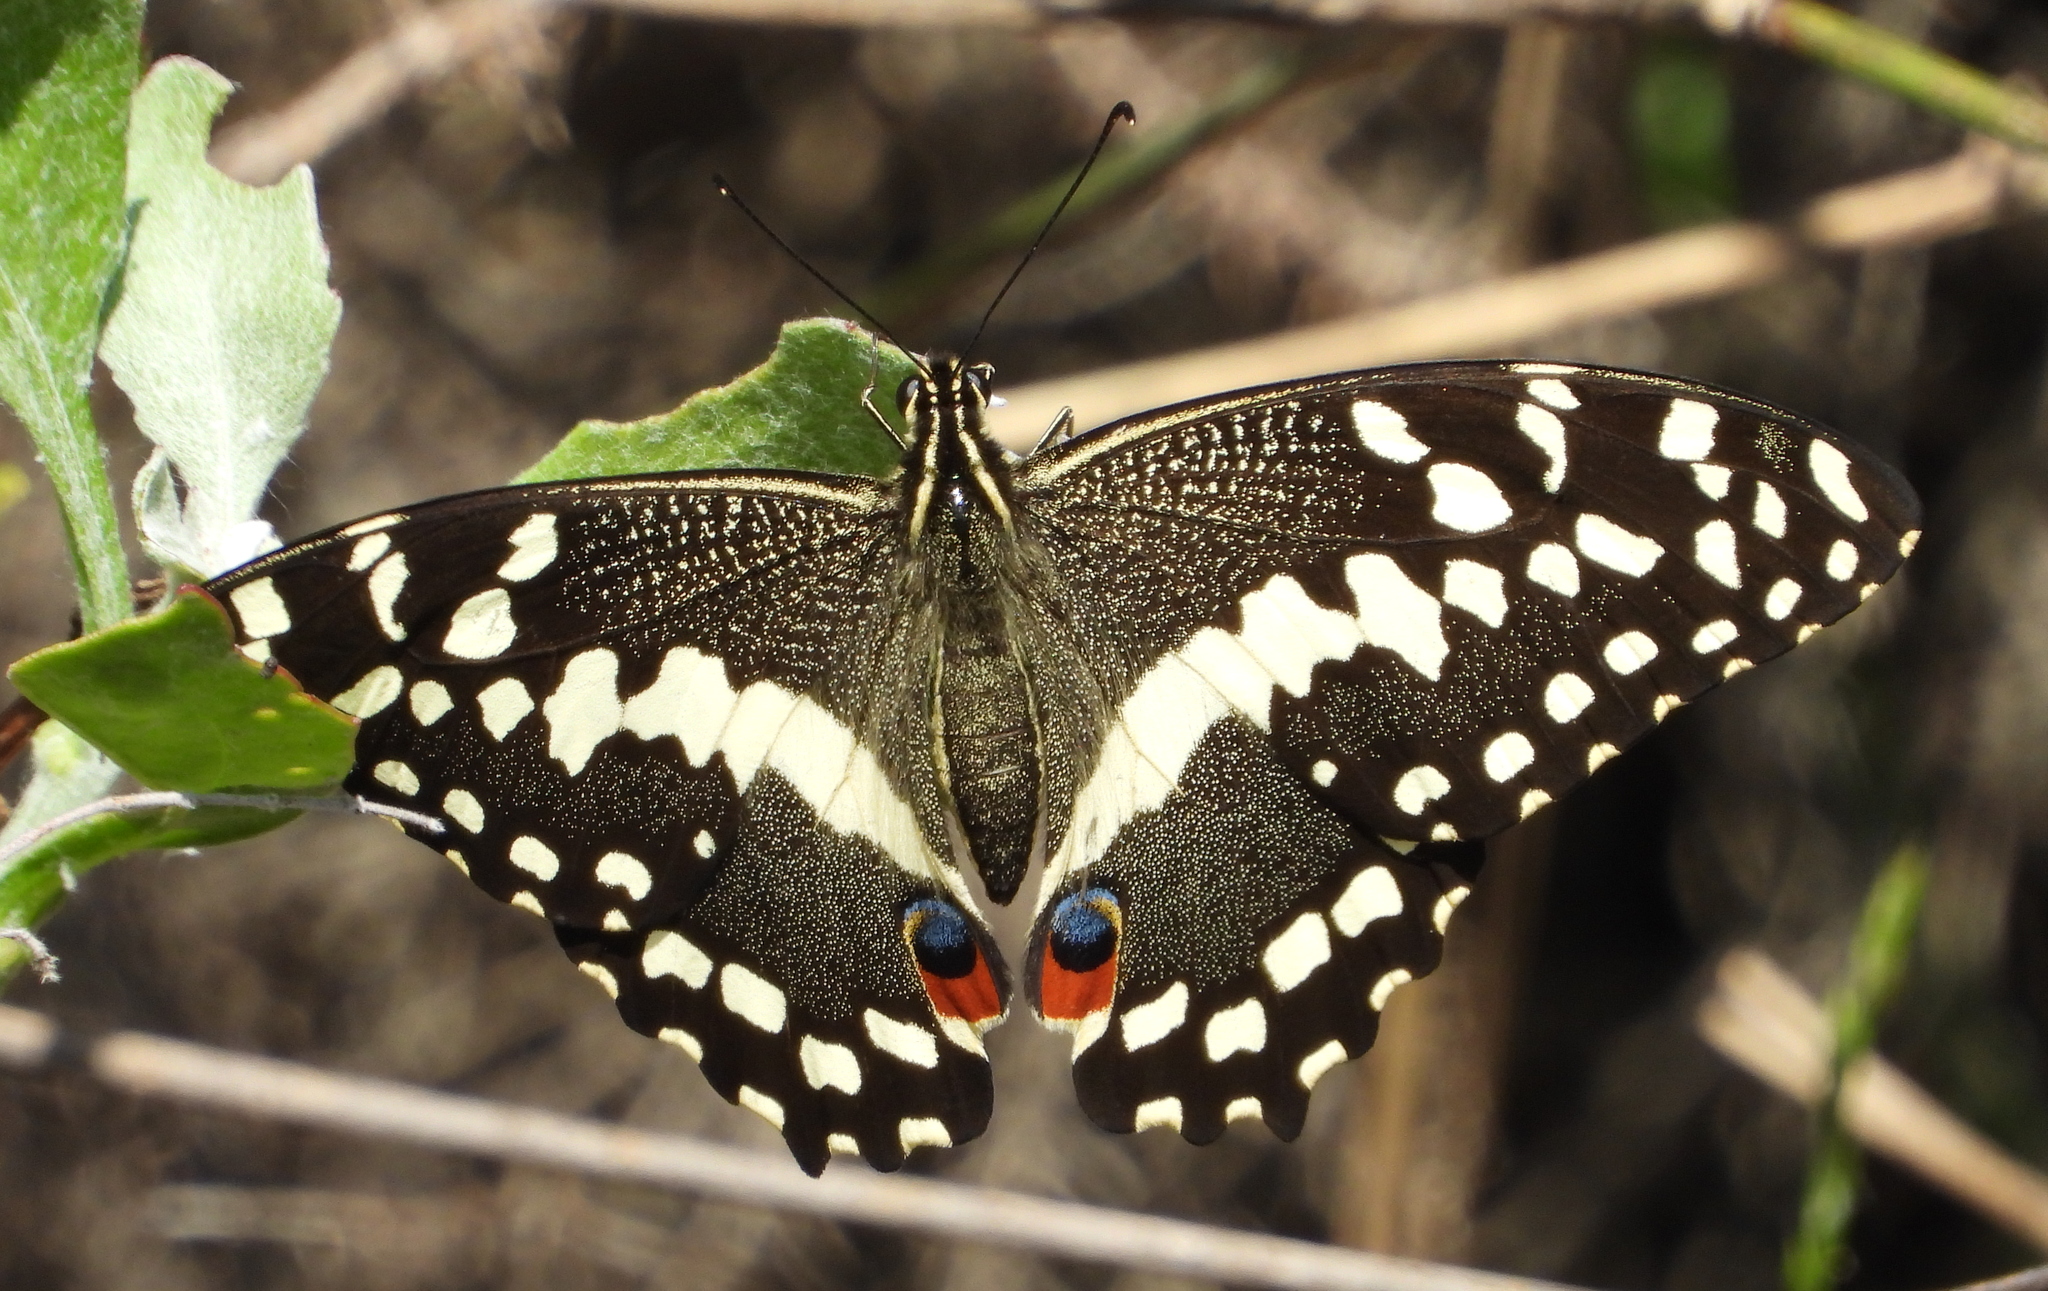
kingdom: Animalia
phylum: Arthropoda
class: Insecta
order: Lepidoptera
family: Papilionidae
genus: Papilio
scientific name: Papilio demodocus
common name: Christmas butterfly
